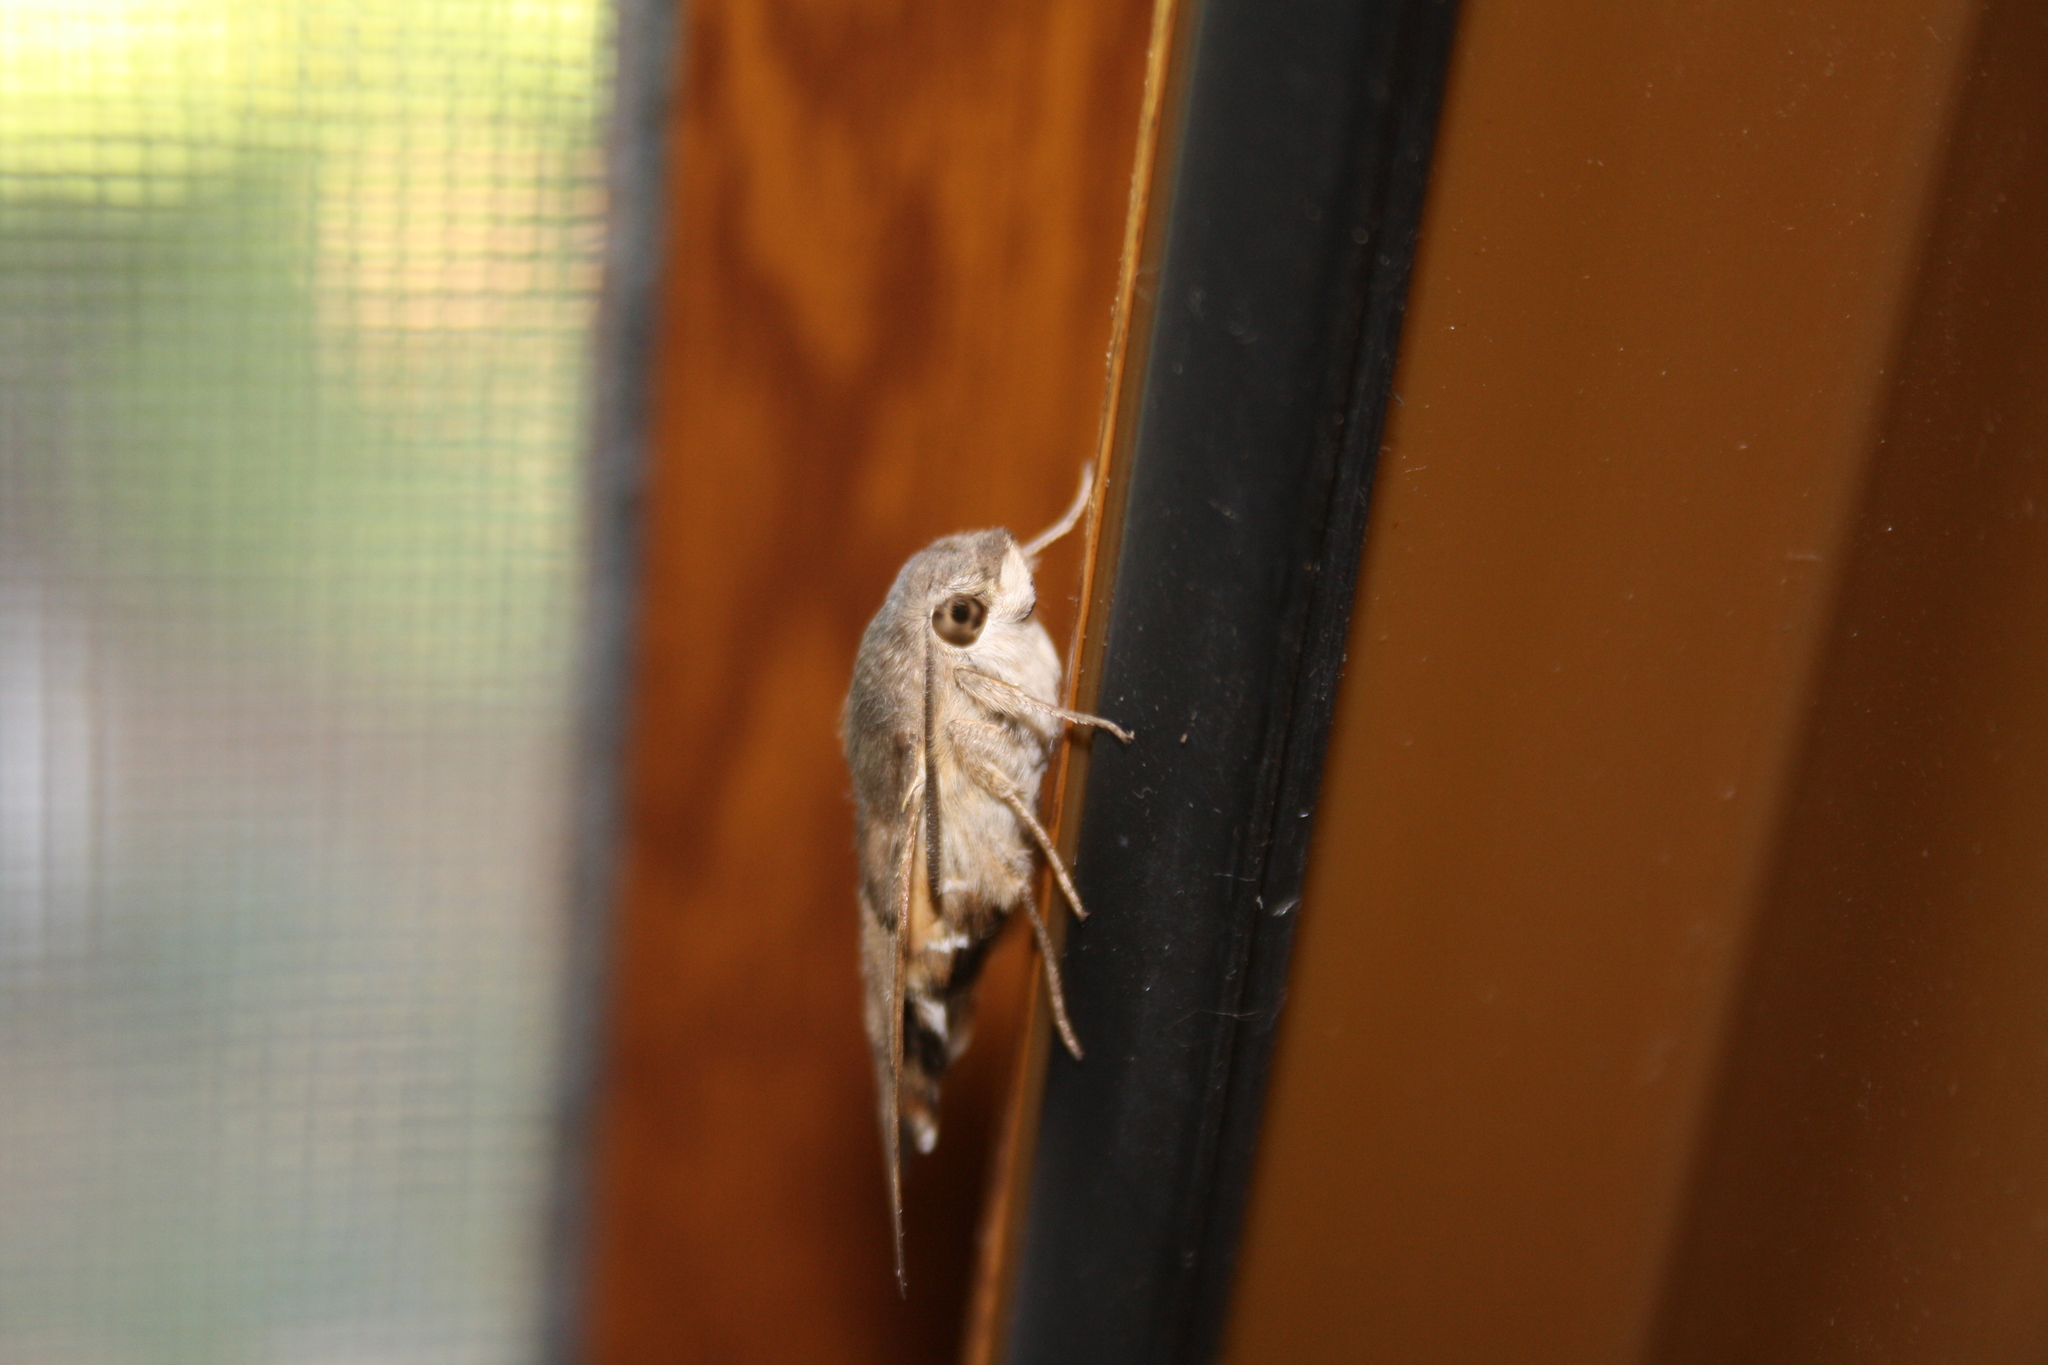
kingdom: Animalia
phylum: Arthropoda
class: Insecta
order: Lepidoptera
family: Sphingidae
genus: Macroglossum
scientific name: Macroglossum stellatarum
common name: Humming-bird hawk-moth
